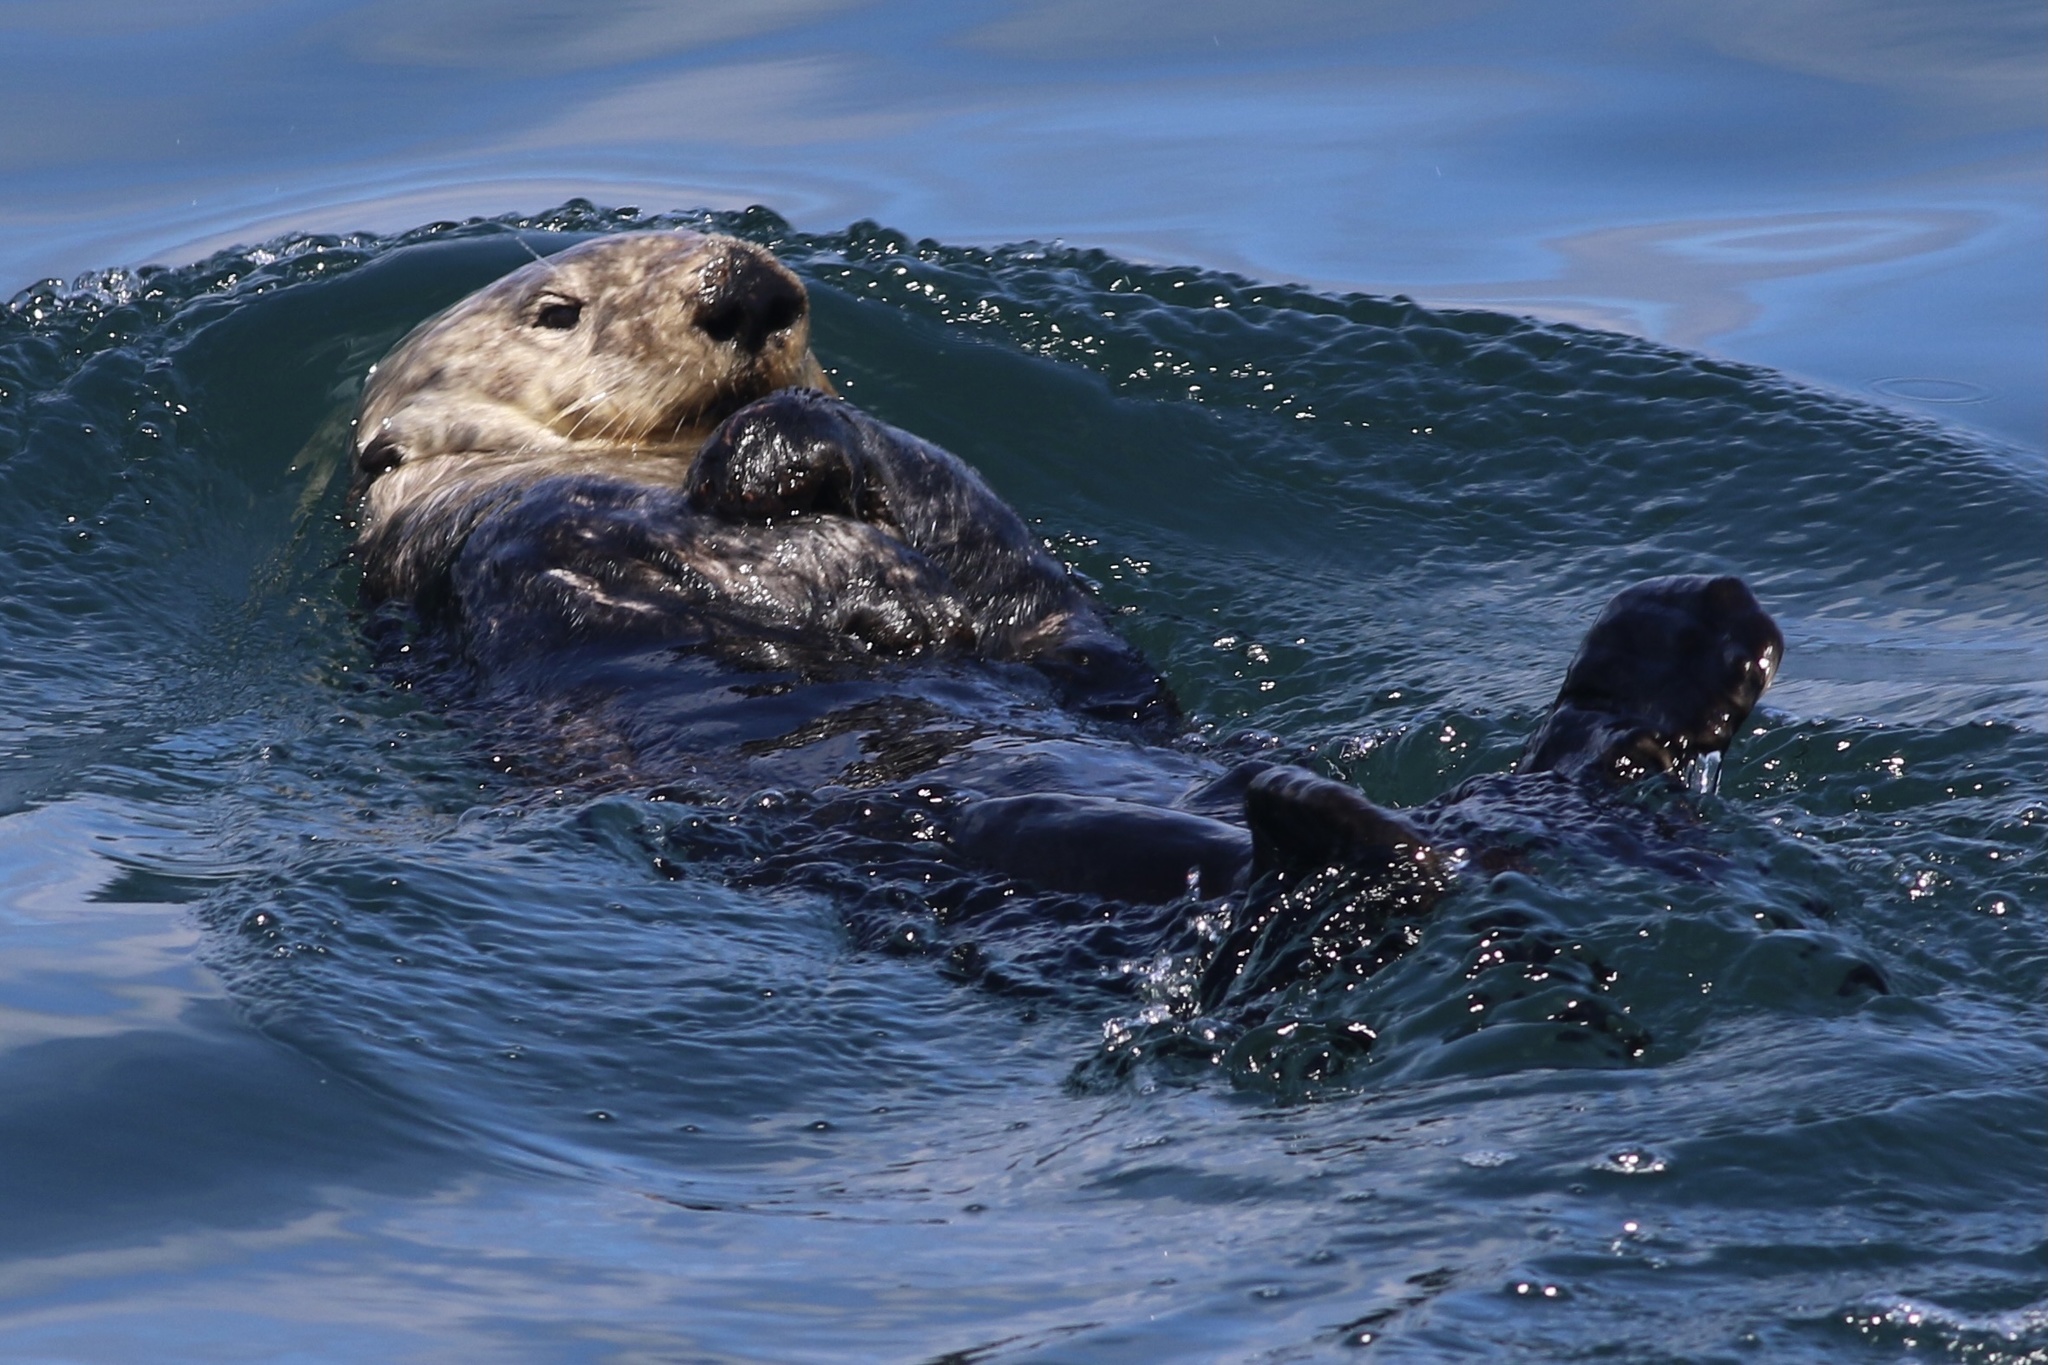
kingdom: Animalia
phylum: Chordata
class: Mammalia
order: Carnivora
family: Mustelidae
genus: Enhydra
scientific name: Enhydra lutris
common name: Sea otter
